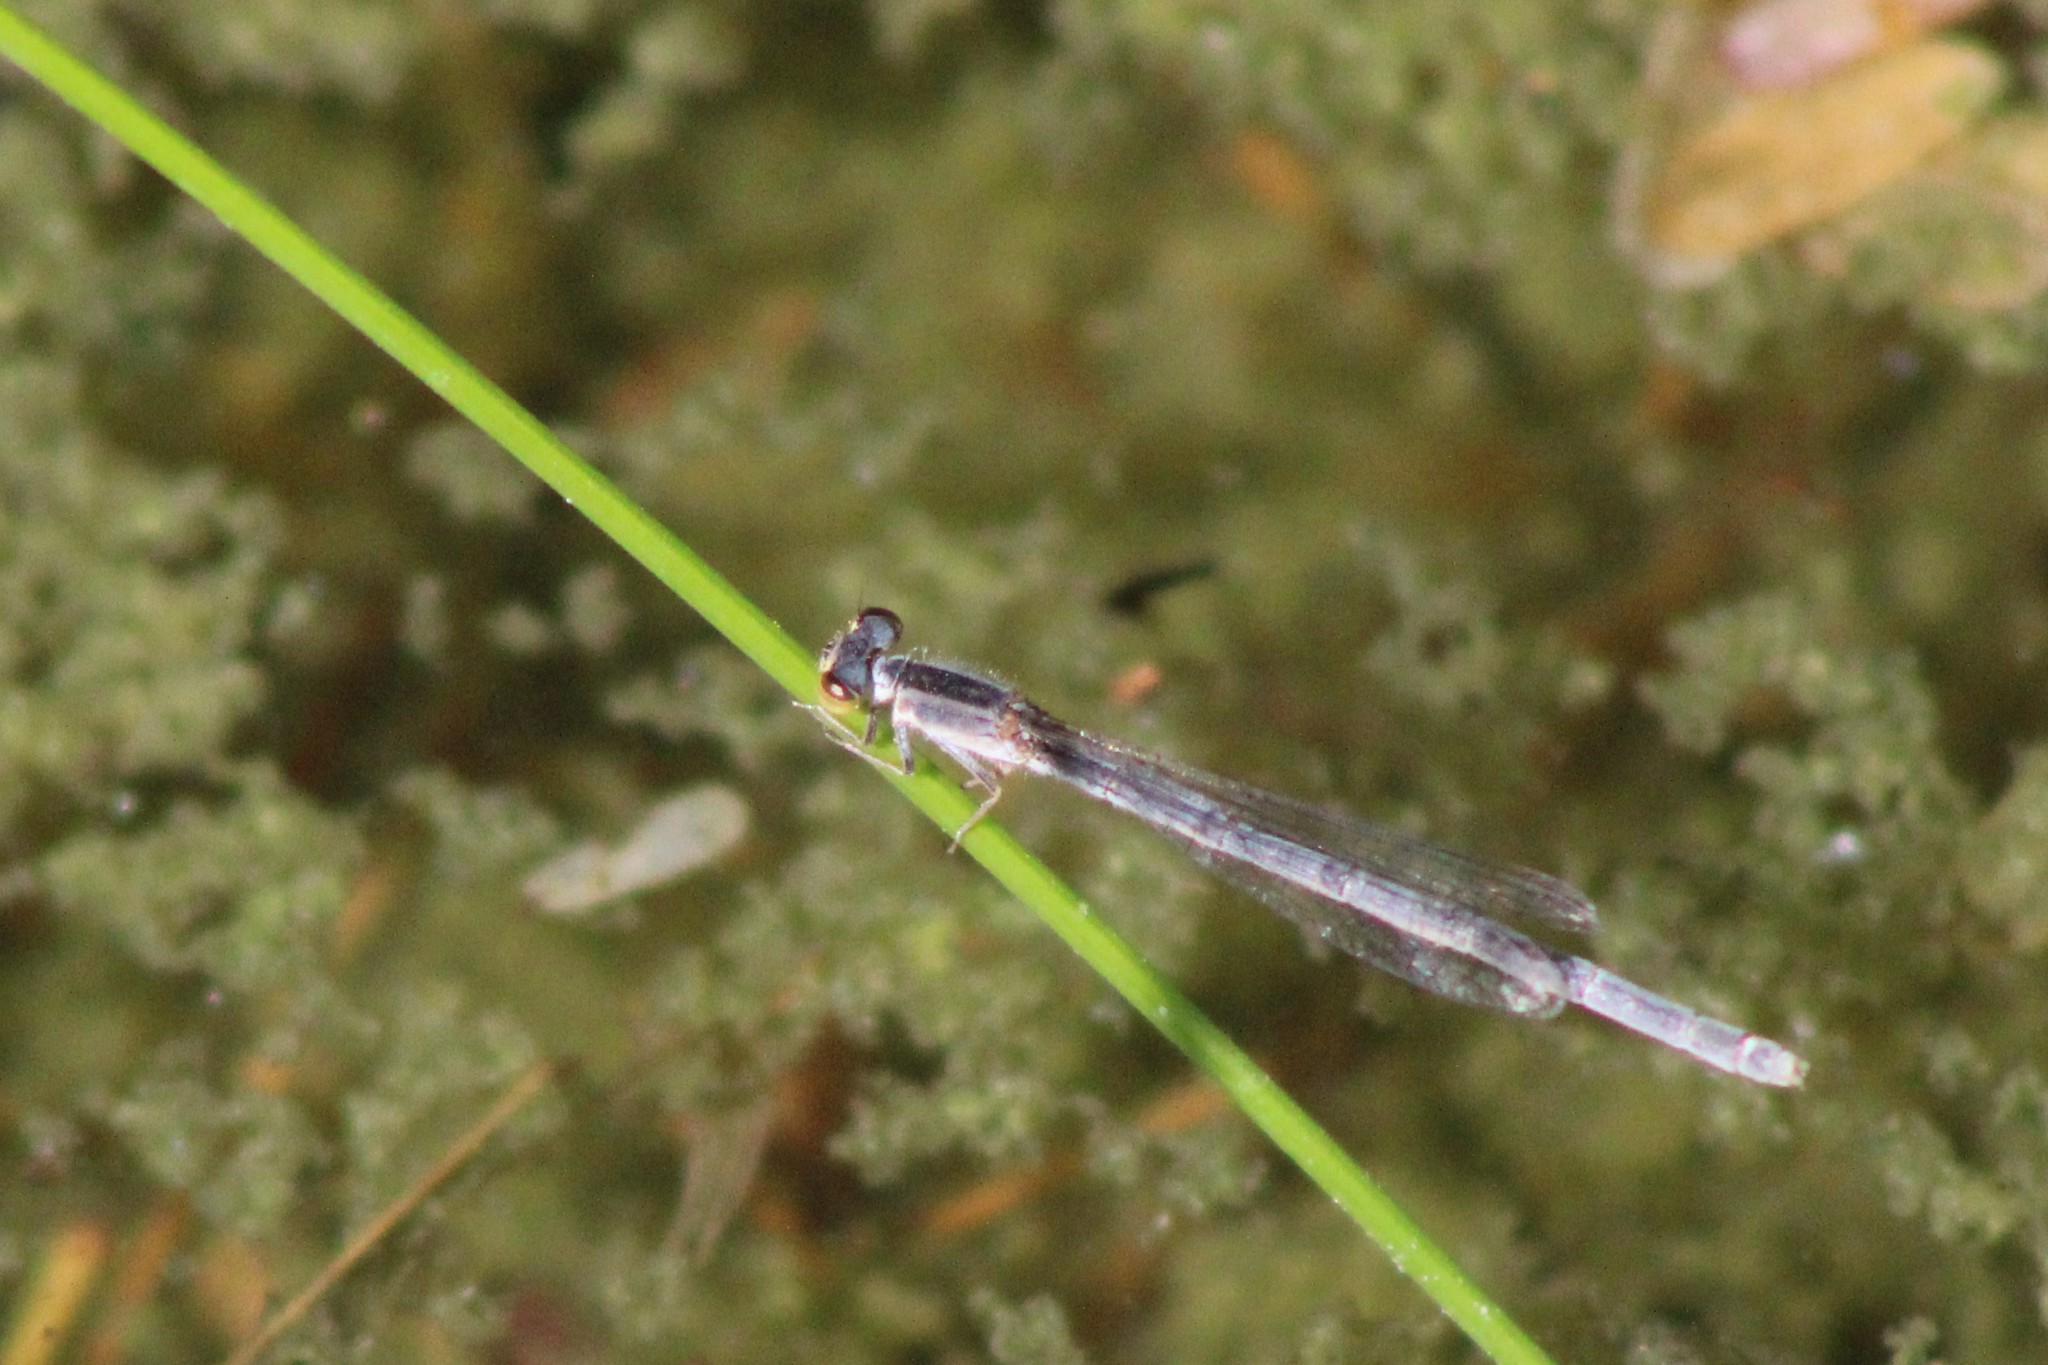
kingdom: Animalia
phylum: Arthropoda
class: Insecta
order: Odonata
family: Coenagrionidae
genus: Ischnura
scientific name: Ischnura hastata
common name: Citrine forktail
